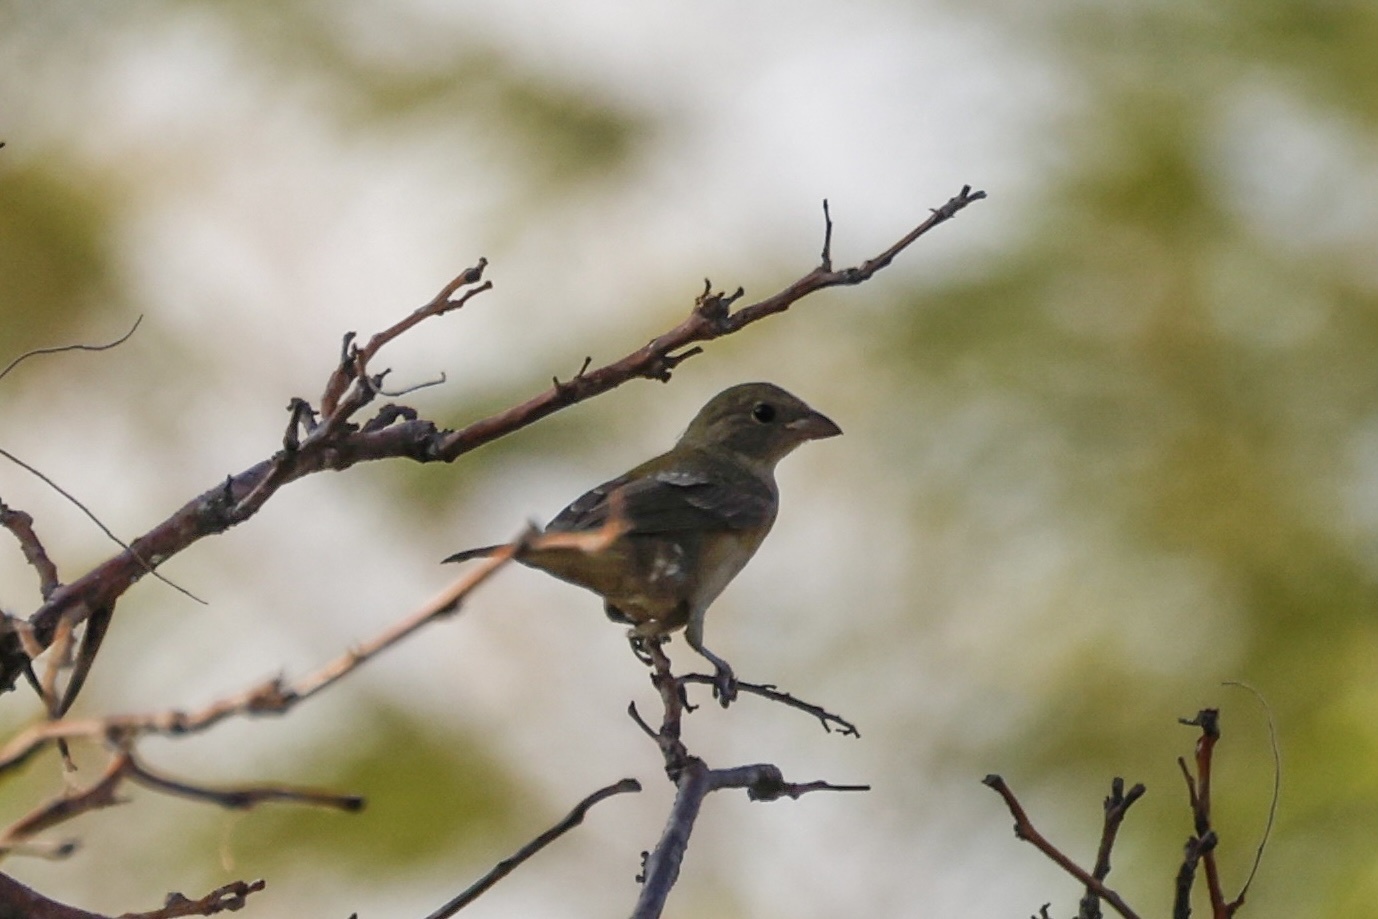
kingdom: Animalia
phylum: Chordata
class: Aves
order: Passeriformes
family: Cardinalidae
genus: Passerina
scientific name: Passerina ciris
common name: Painted bunting
